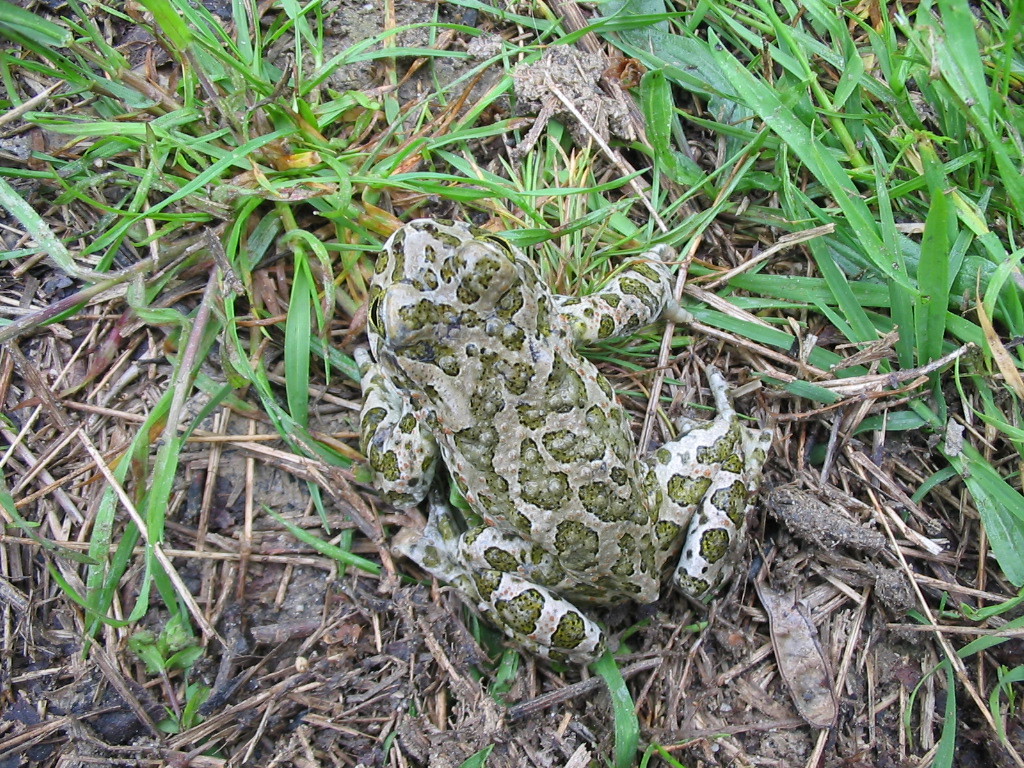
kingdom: Animalia
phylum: Chordata
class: Amphibia
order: Anura
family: Bufonidae
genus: Bufotes
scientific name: Bufotes viridis
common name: European green toad
